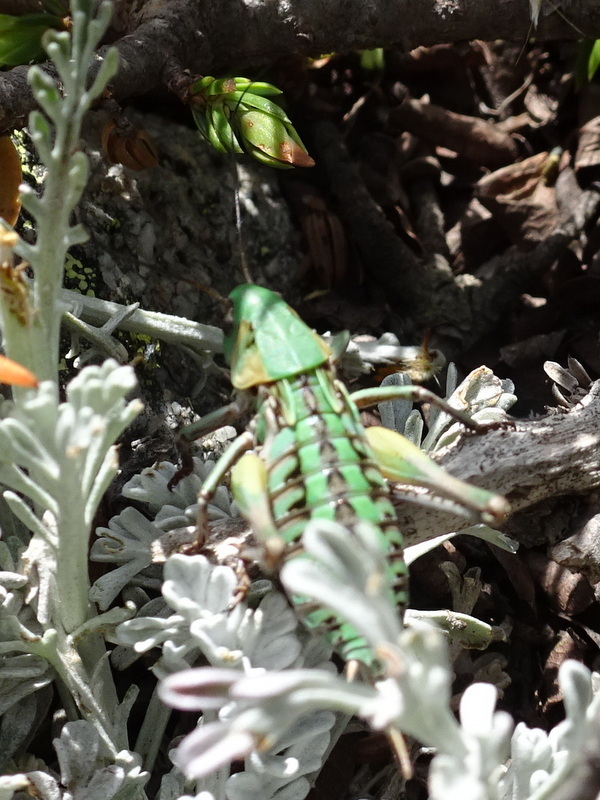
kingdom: Animalia
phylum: Arthropoda
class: Insecta
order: Orthoptera
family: Tettigoniidae
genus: Decticus
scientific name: Decticus verrucivorus
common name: Wart-biter
